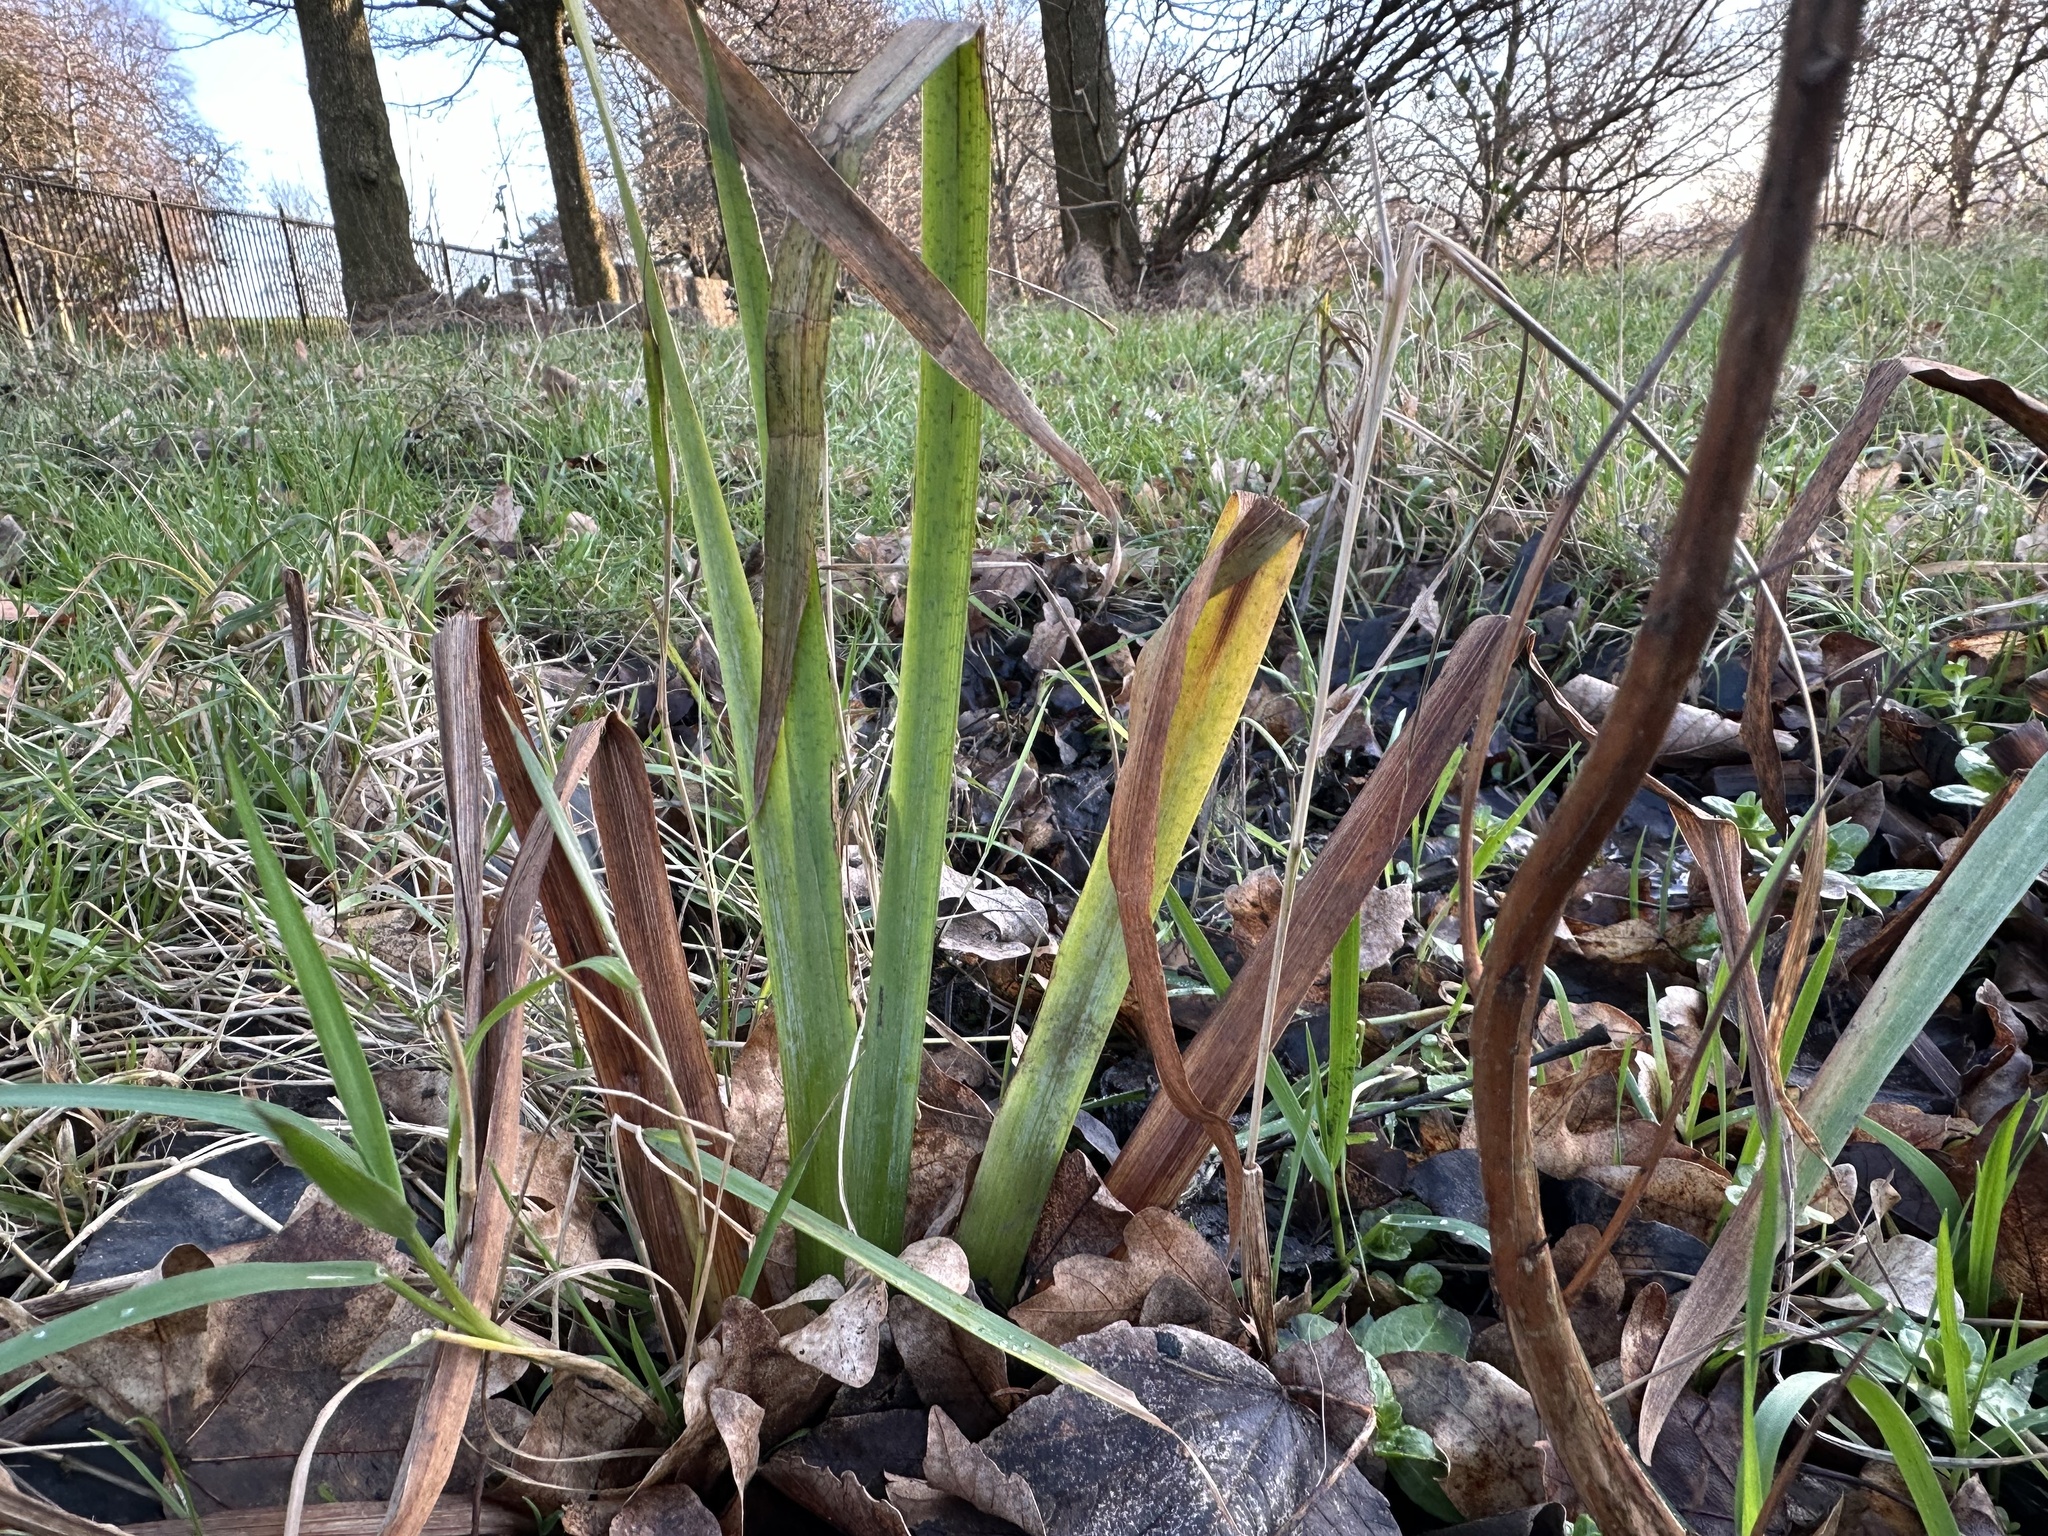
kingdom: Plantae
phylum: Tracheophyta
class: Liliopsida
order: Asparagales
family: Iridaceae
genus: Iris
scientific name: Iris pseudacorus
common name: Yellow flag
